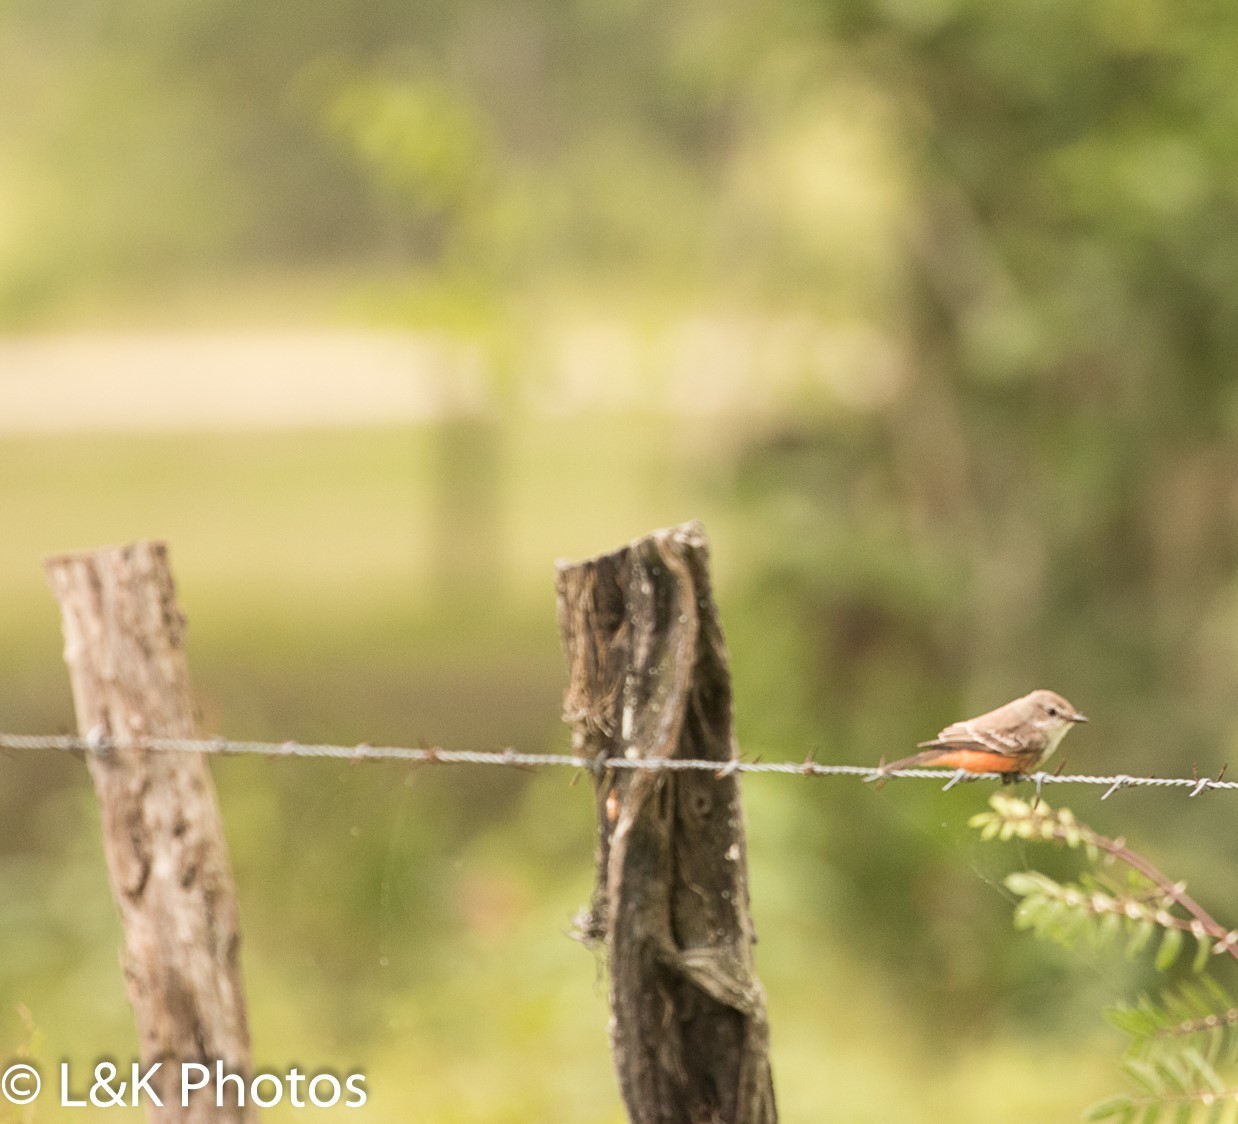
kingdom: Animalia
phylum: Chordata
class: Aves
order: Passeriformes
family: Tyrannidae
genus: Pyrocephalus
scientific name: Pyrocephalus rubinus
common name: Vermilion flycatcher
